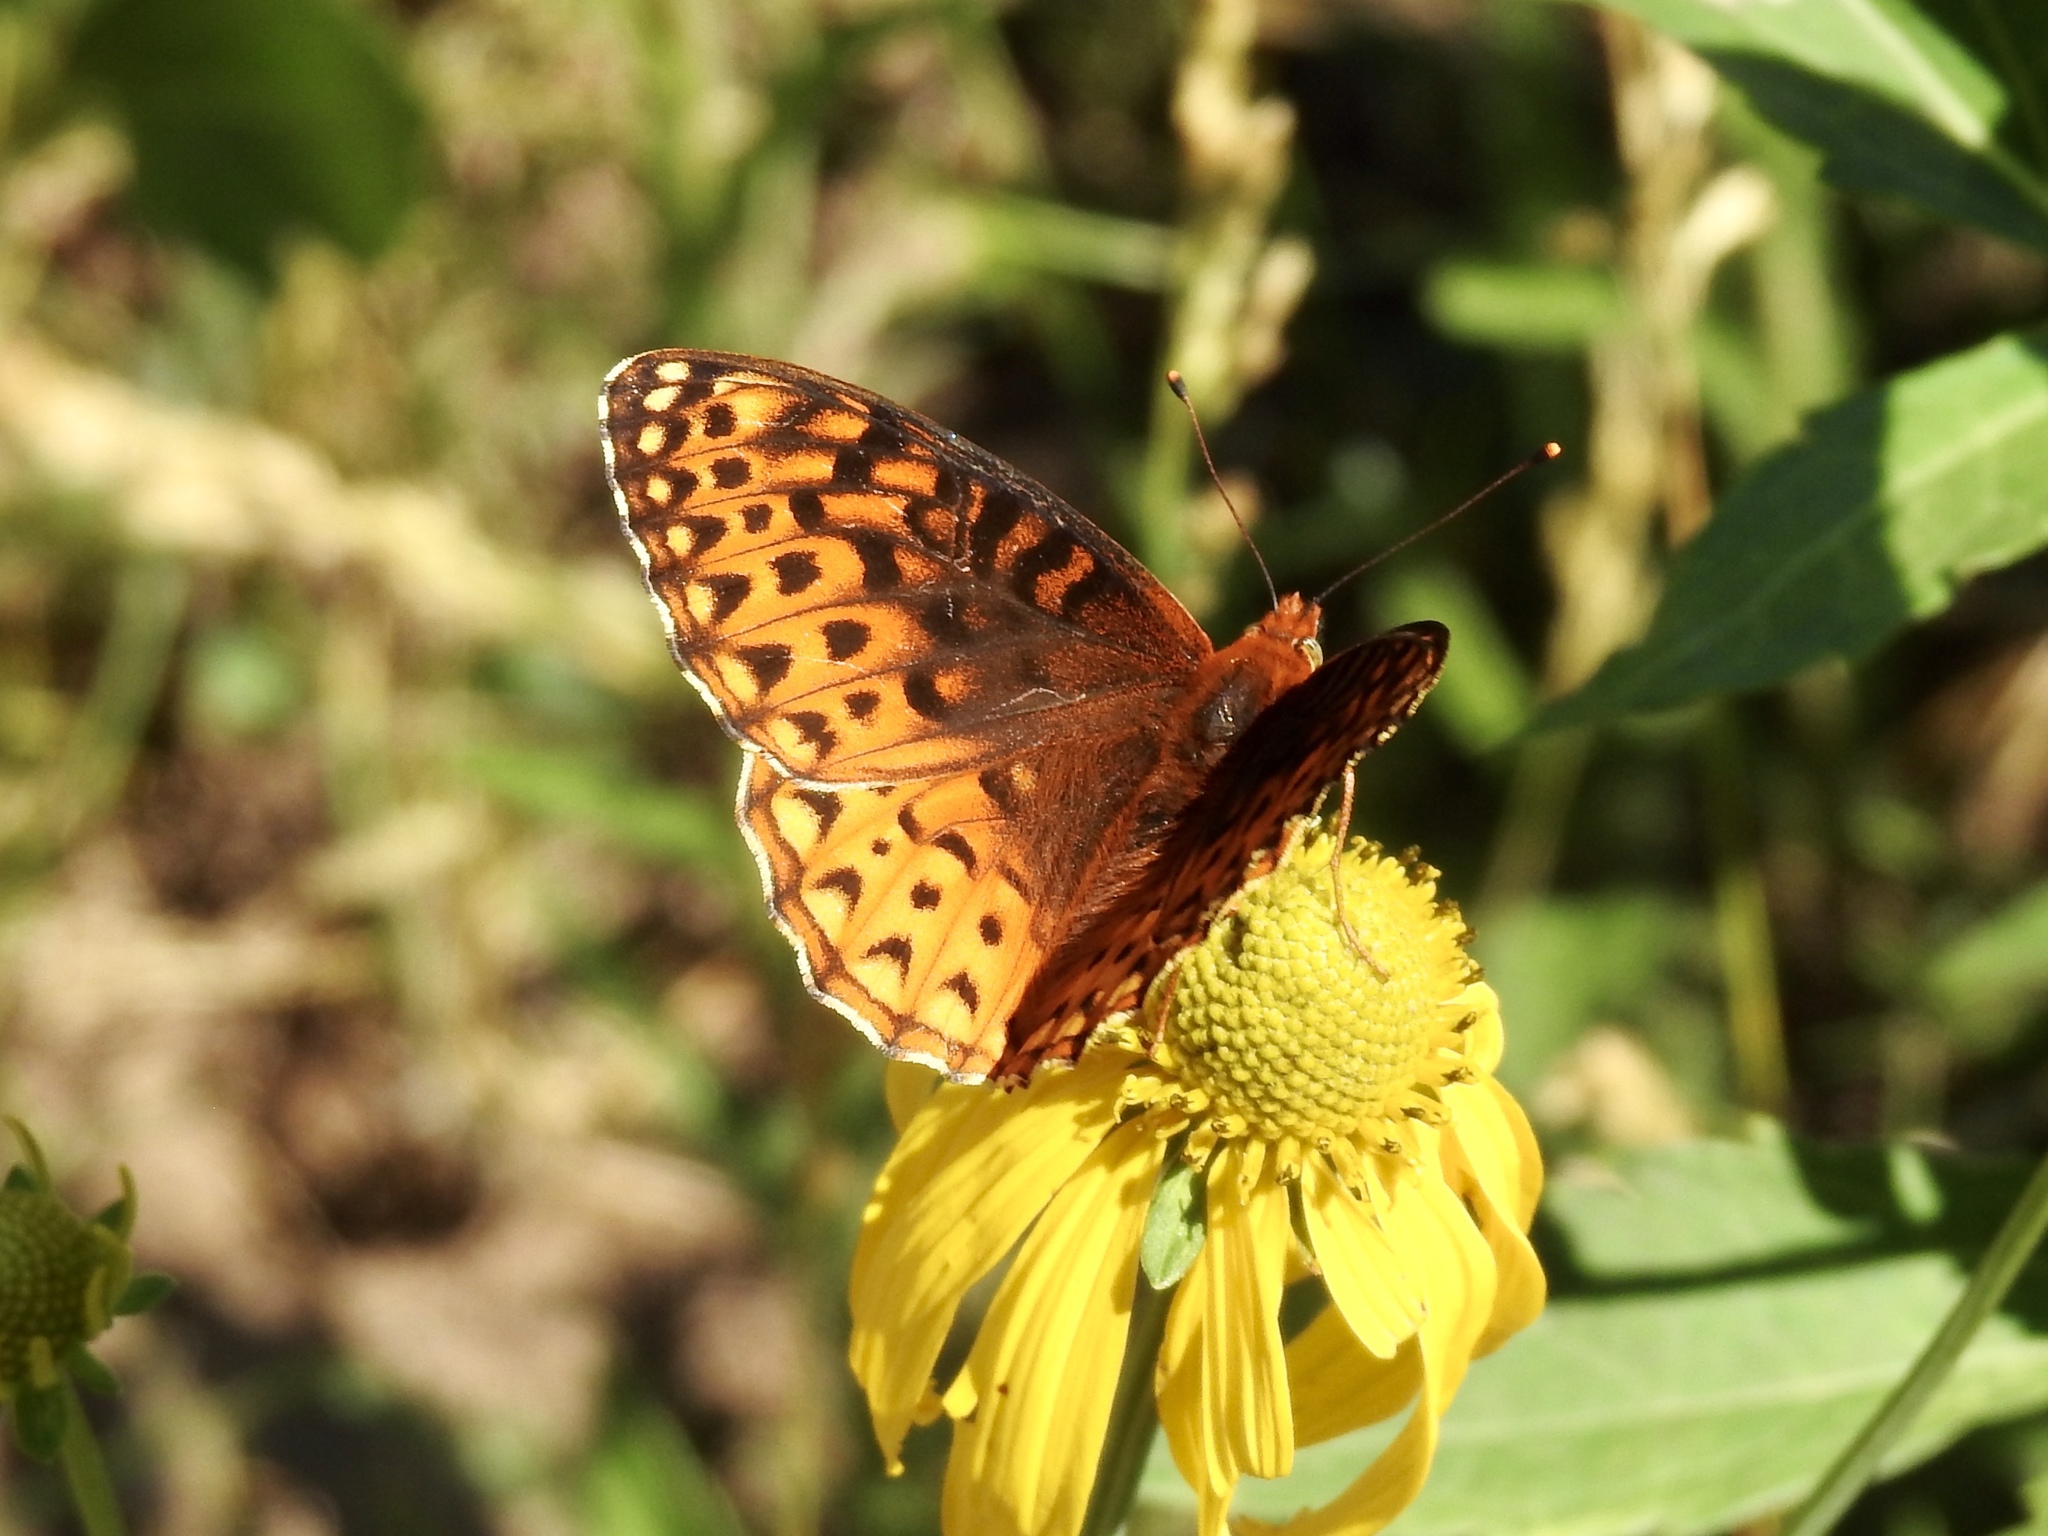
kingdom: Animalia
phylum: Arthropoda
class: Insecta
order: Lepidoptera
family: Nymphalidae
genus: Speyeria
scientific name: Speyeria atlantis
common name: Atlantis fritillary
